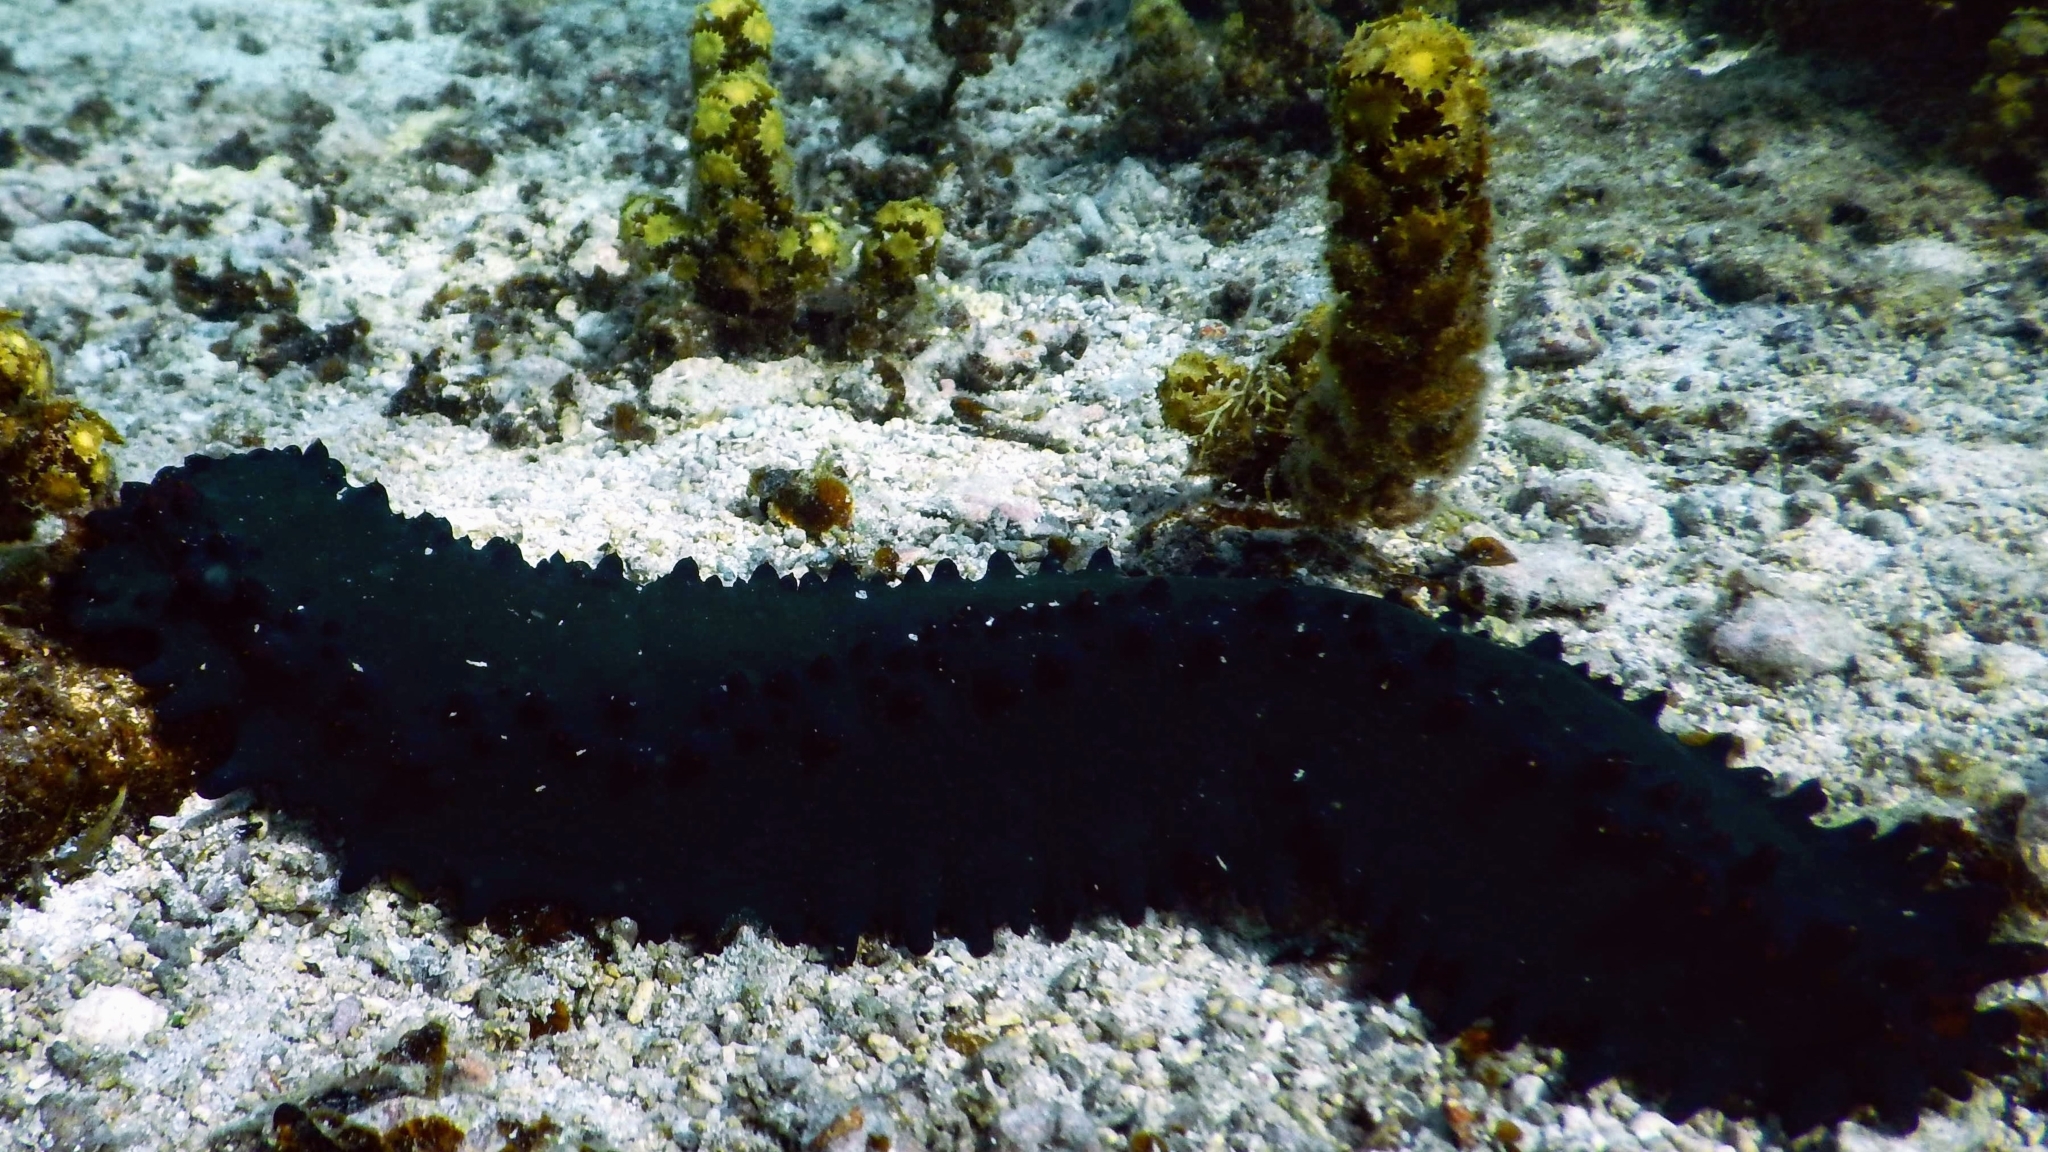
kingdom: Animalia
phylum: Echinodermata
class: Holothuroidea
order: Synallactida
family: Stichopodidae
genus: Stichopus
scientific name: Stichopus chloronotus
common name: Greenfish
